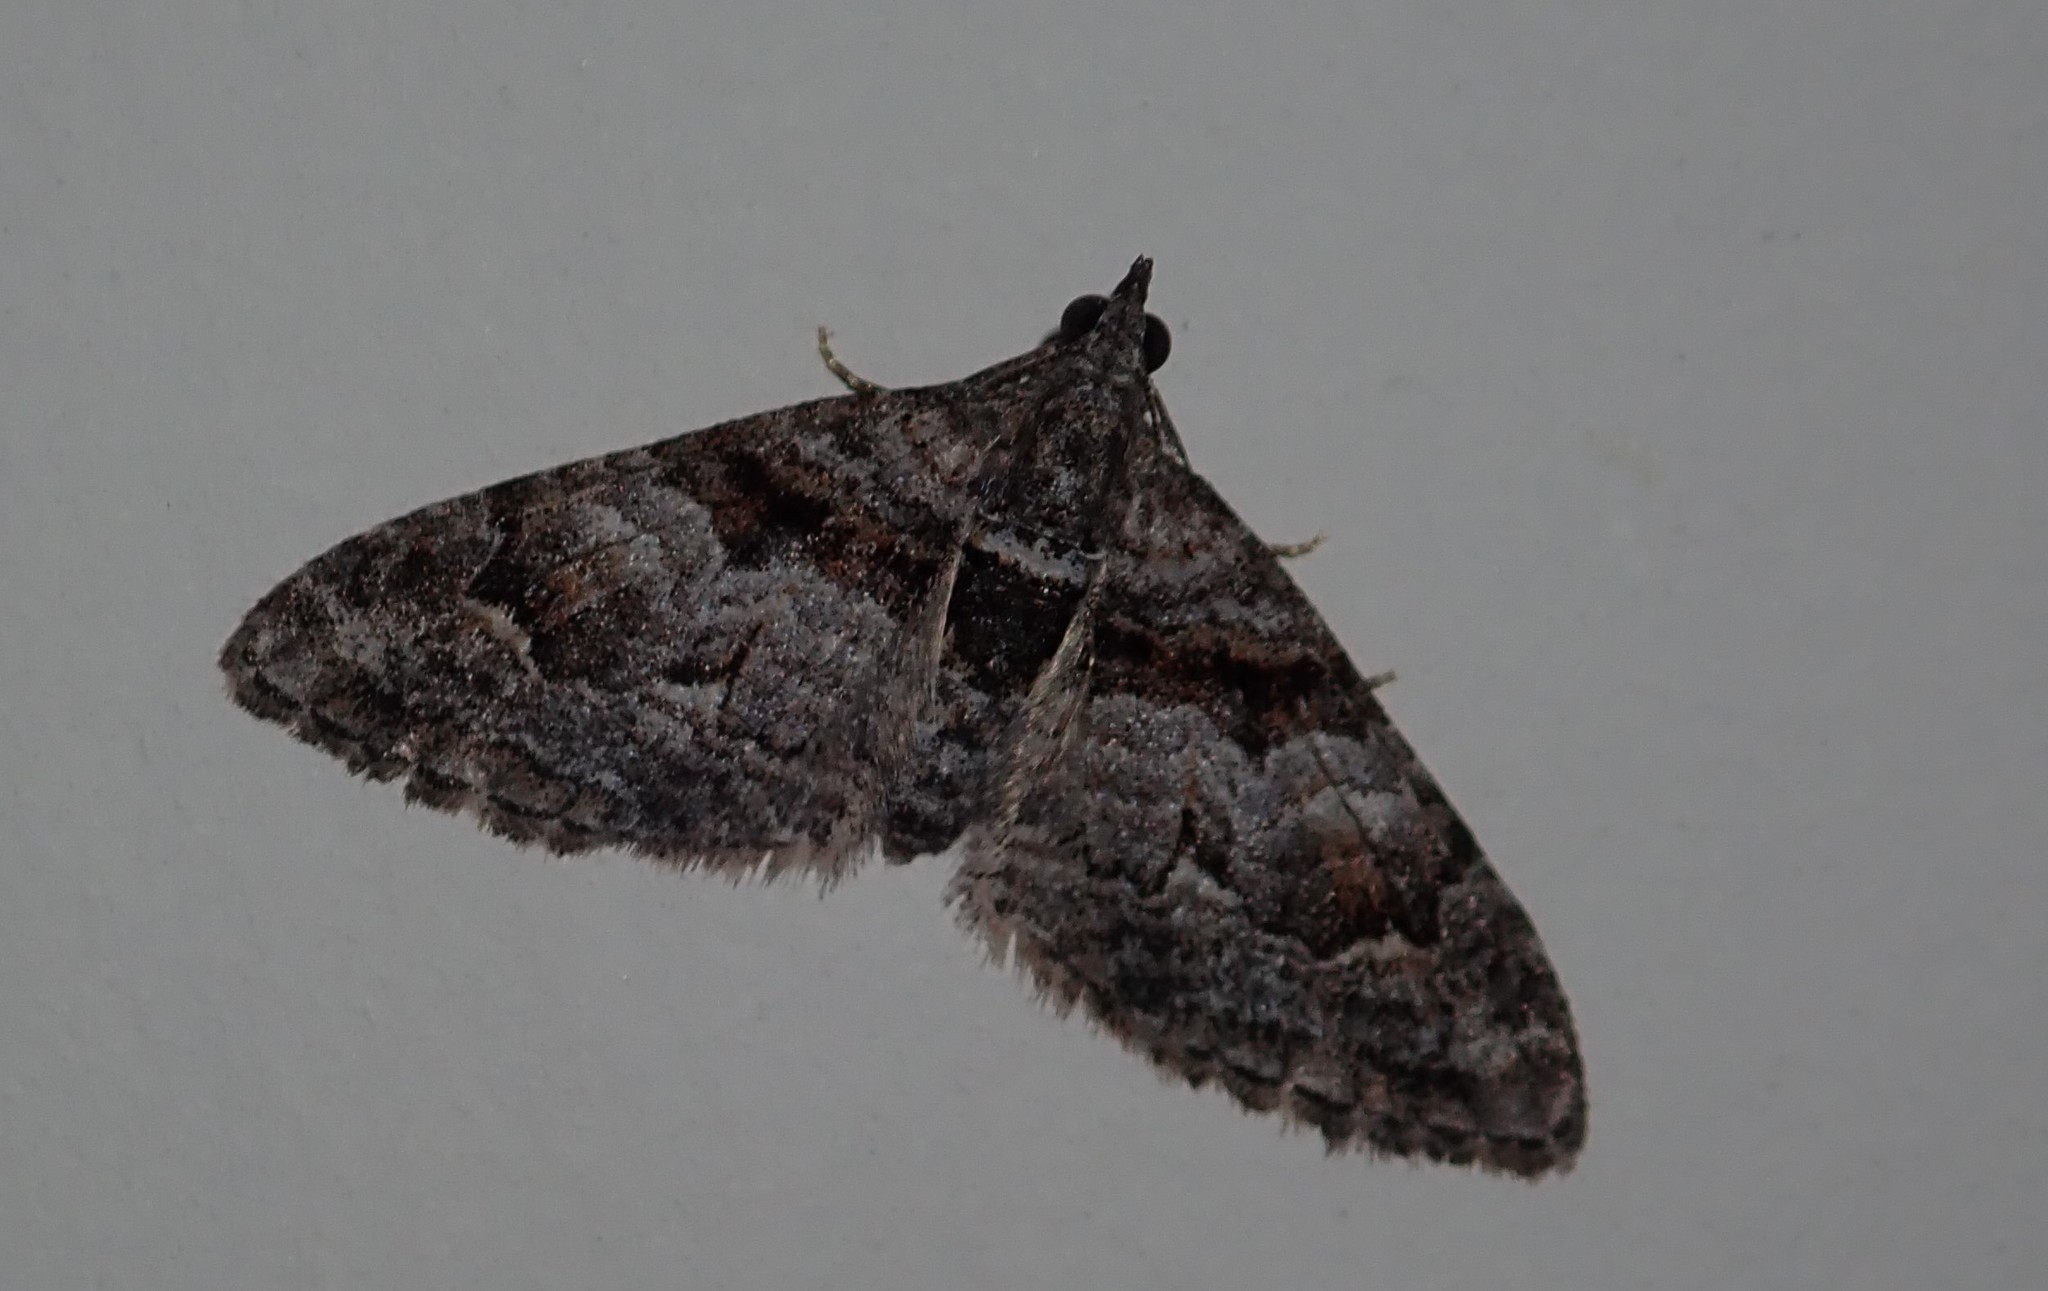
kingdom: Animalia
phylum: Arthropoda
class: Insecta
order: Lepidoptera
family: Geometridae
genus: Phrissogonus
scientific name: Phrissogonus laticostata
